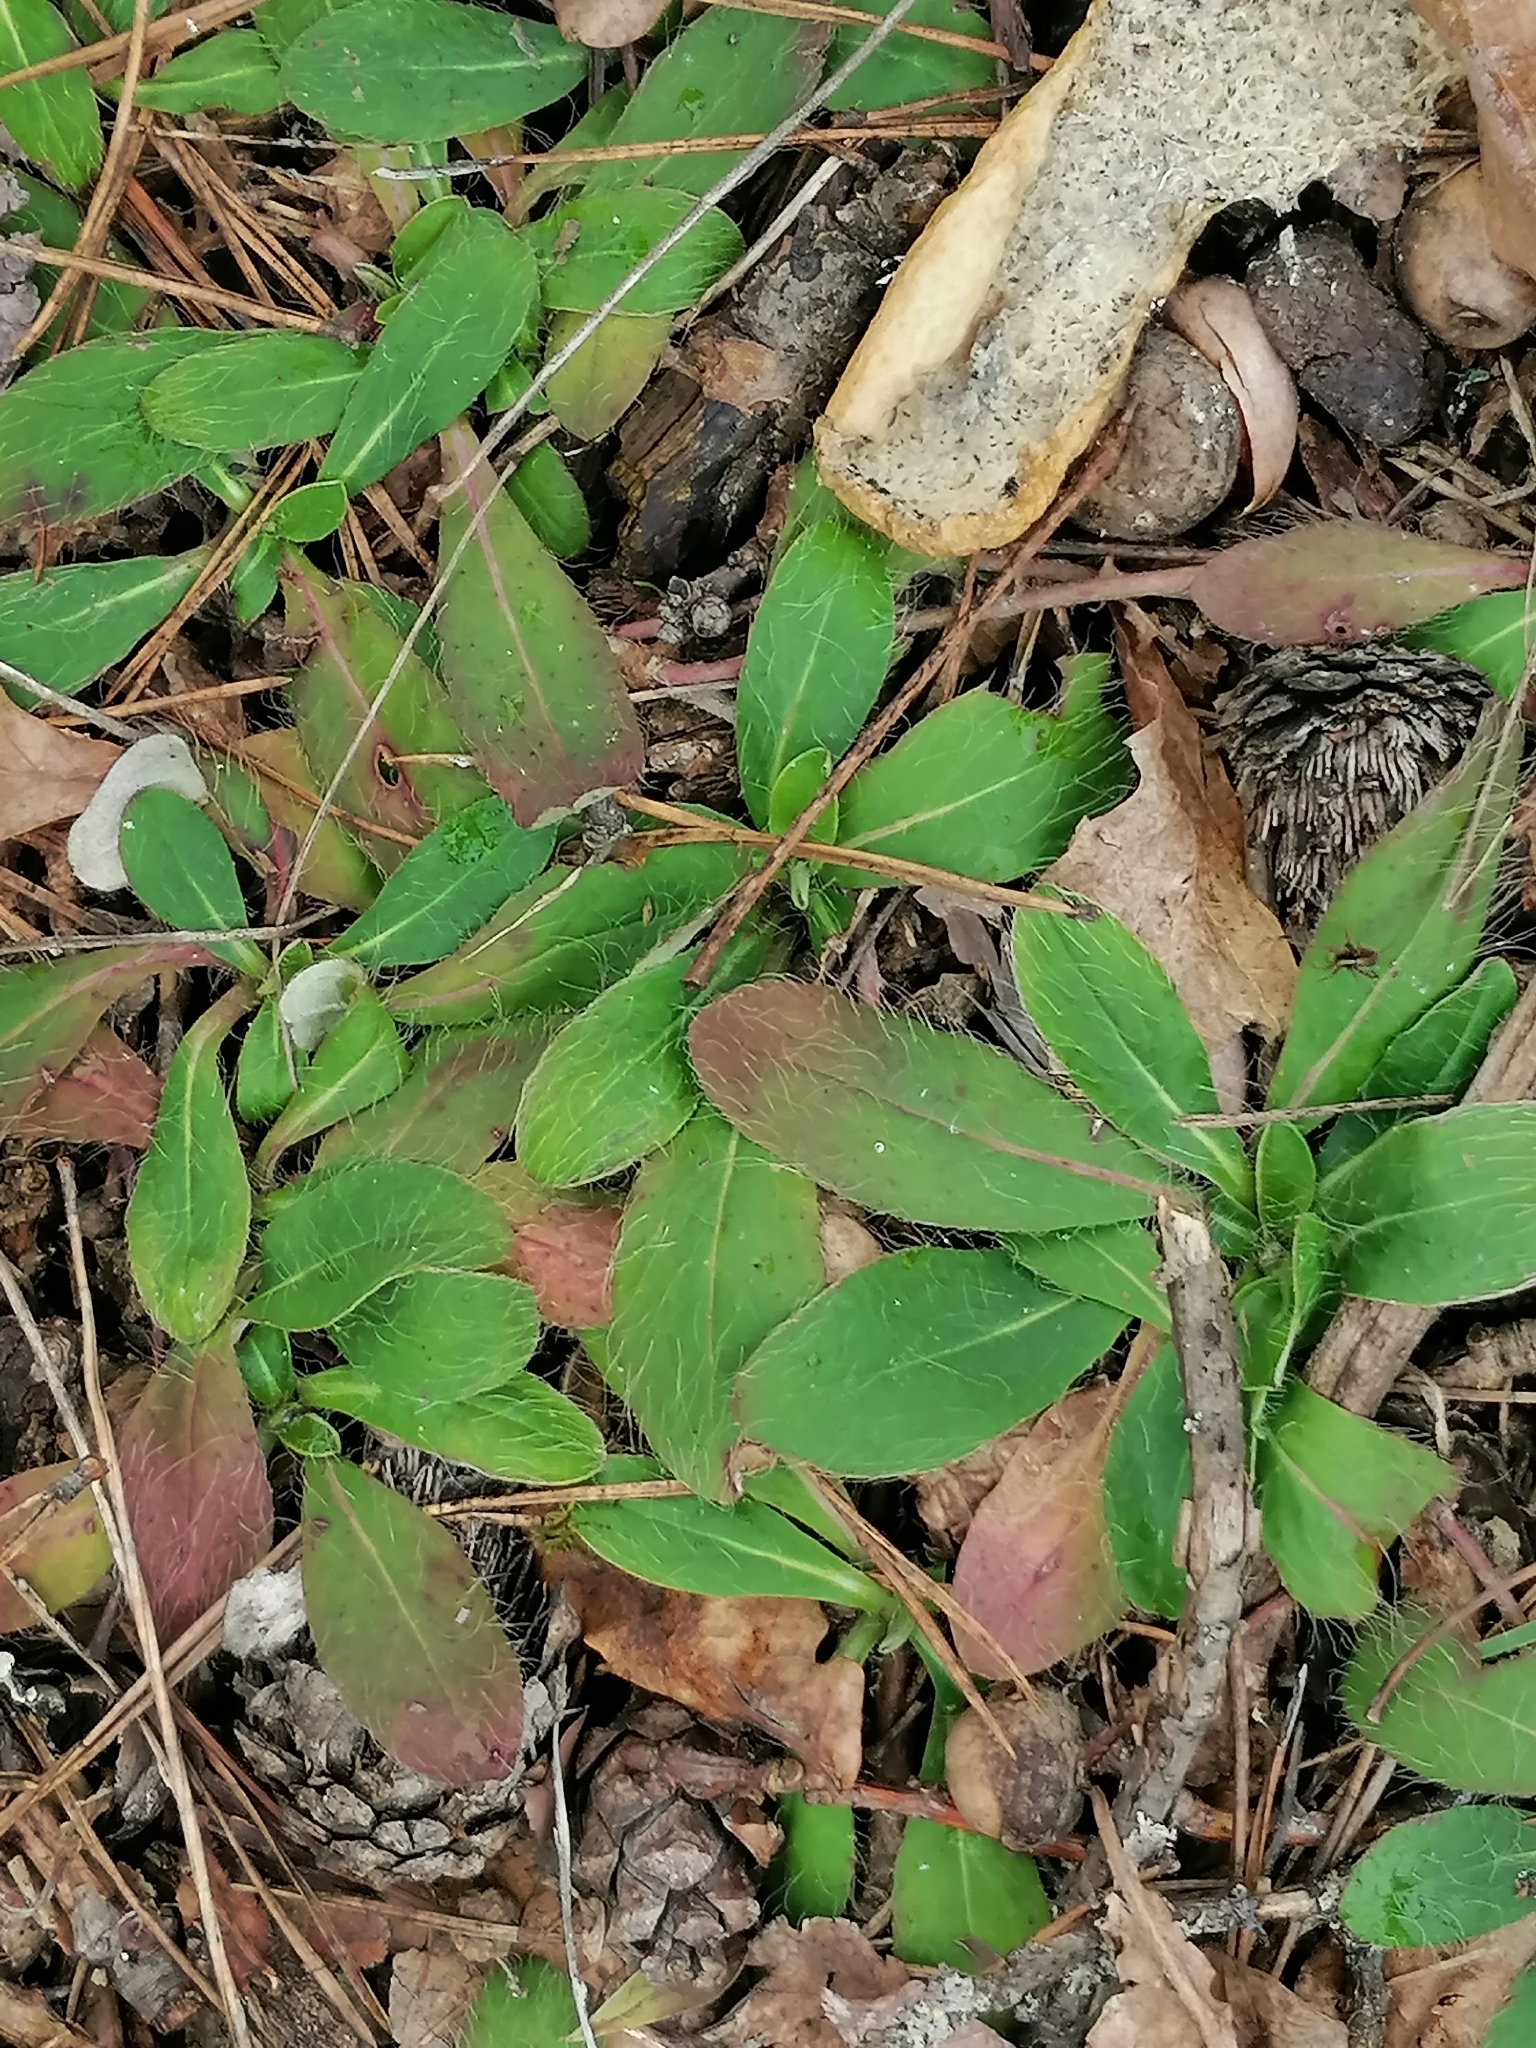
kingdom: Plantae
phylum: Tracheophyta
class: Magnoliopsida
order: Asterales
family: Asteraceae
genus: Pilosella
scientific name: Pilosella officinarum
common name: Mouse-ear hawkweed
